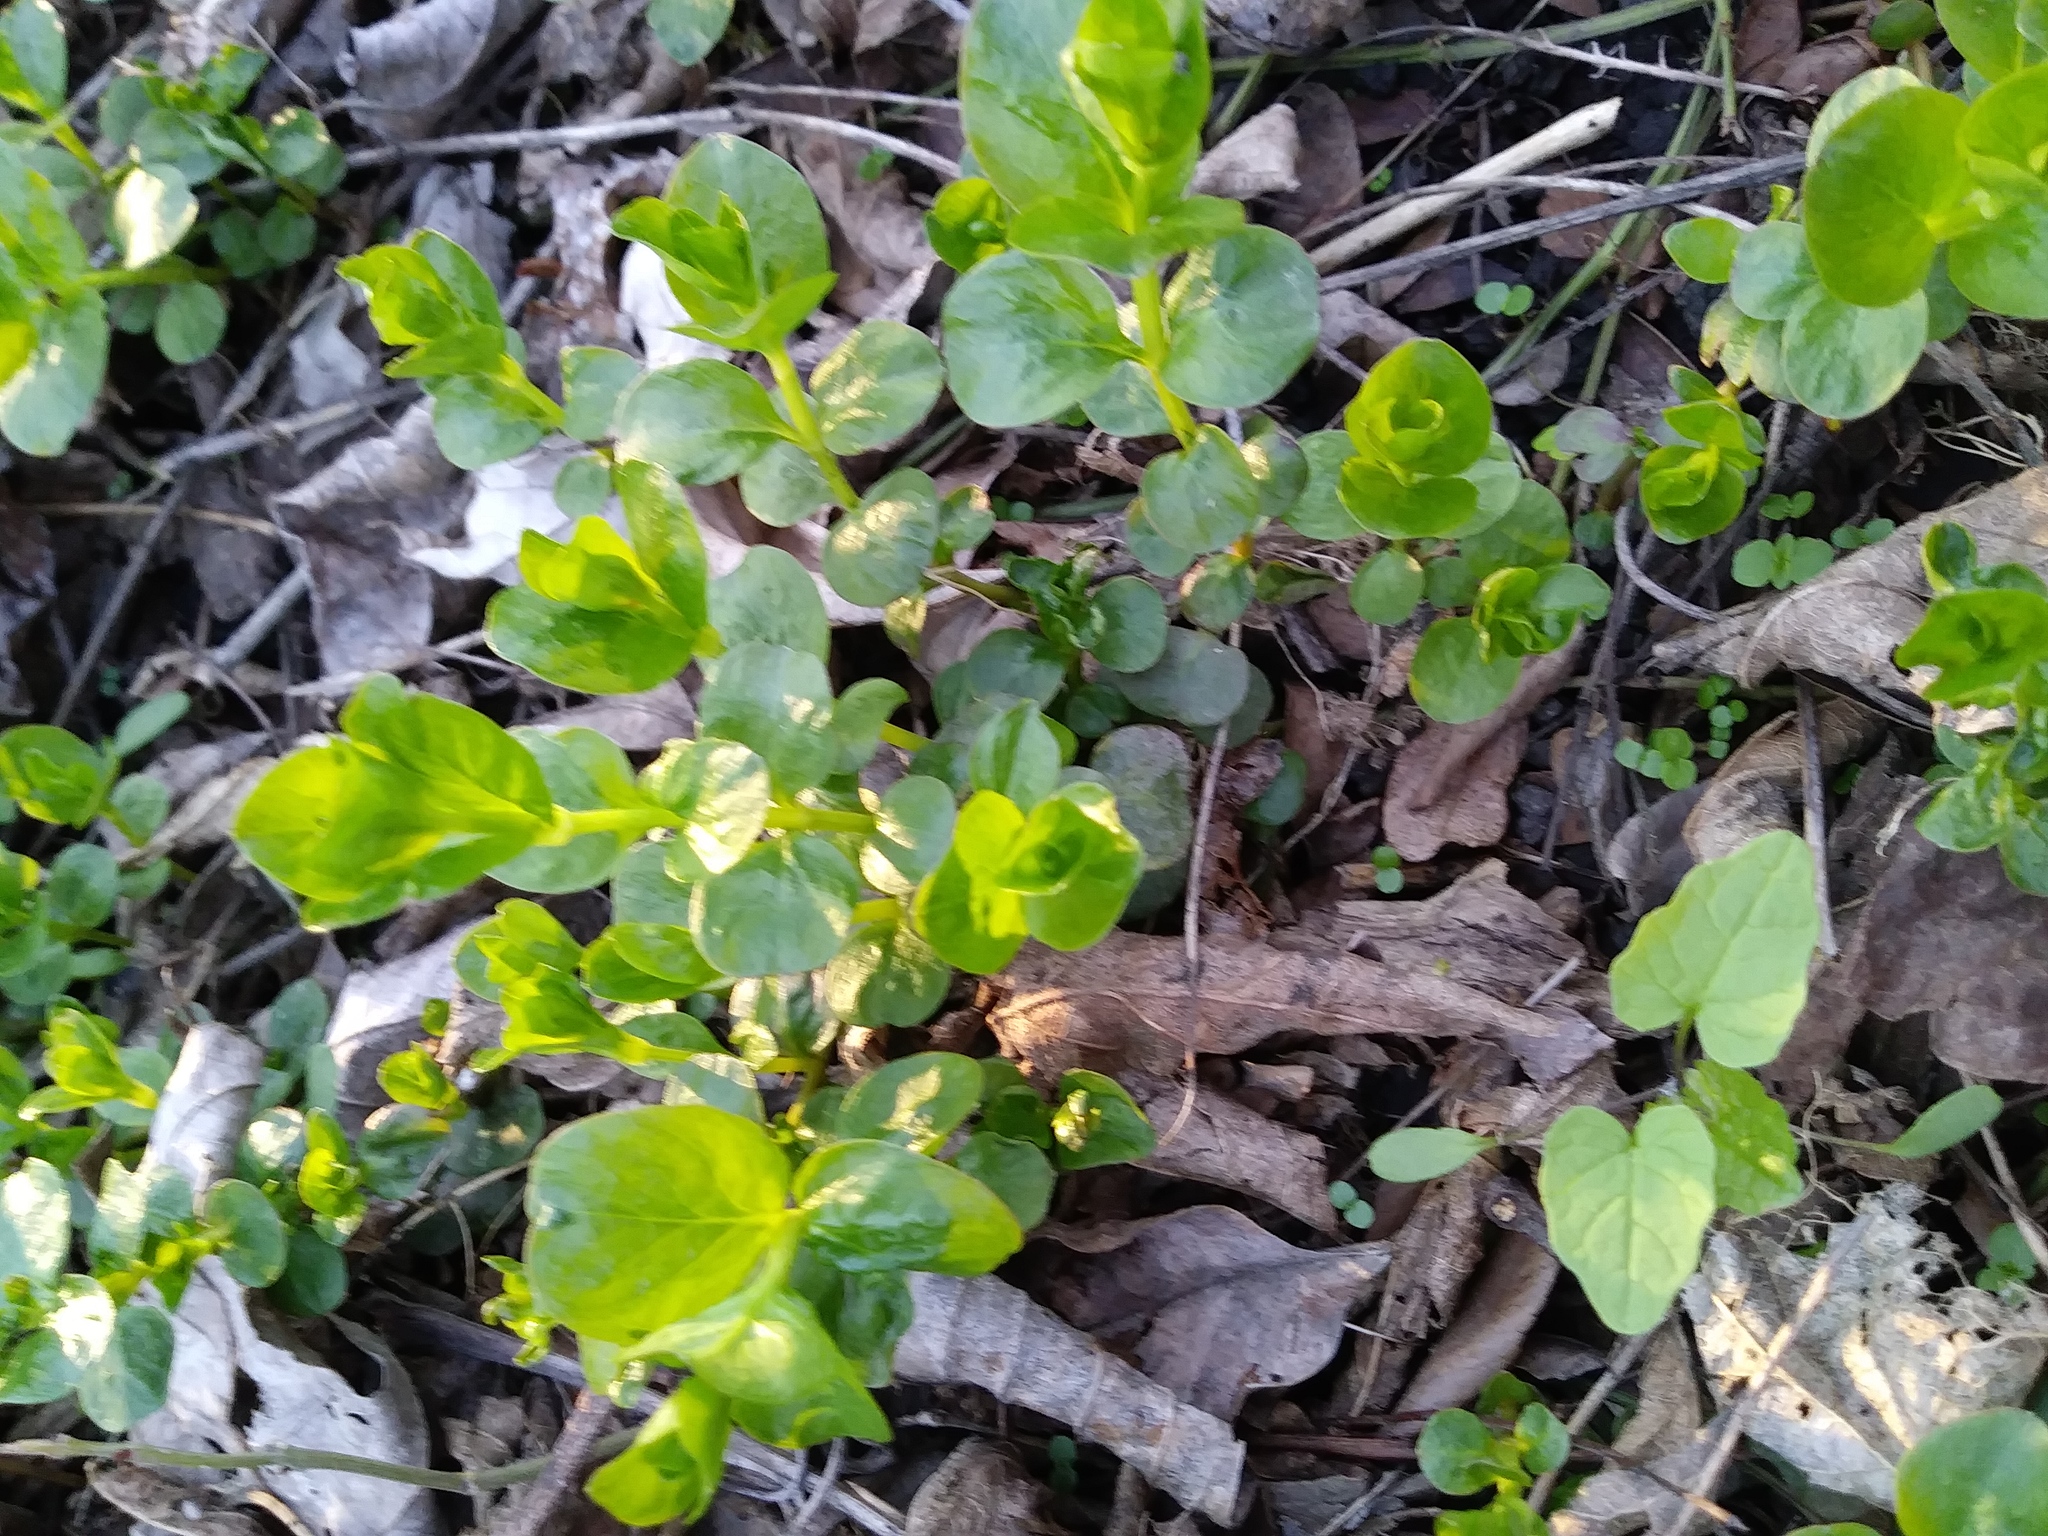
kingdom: Plantae
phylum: Tracheophyta
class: Magnoliopsida
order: Ericales
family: Primulaceae
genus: Lysimachia
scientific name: Lysimachia nummularia
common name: Moneywort
